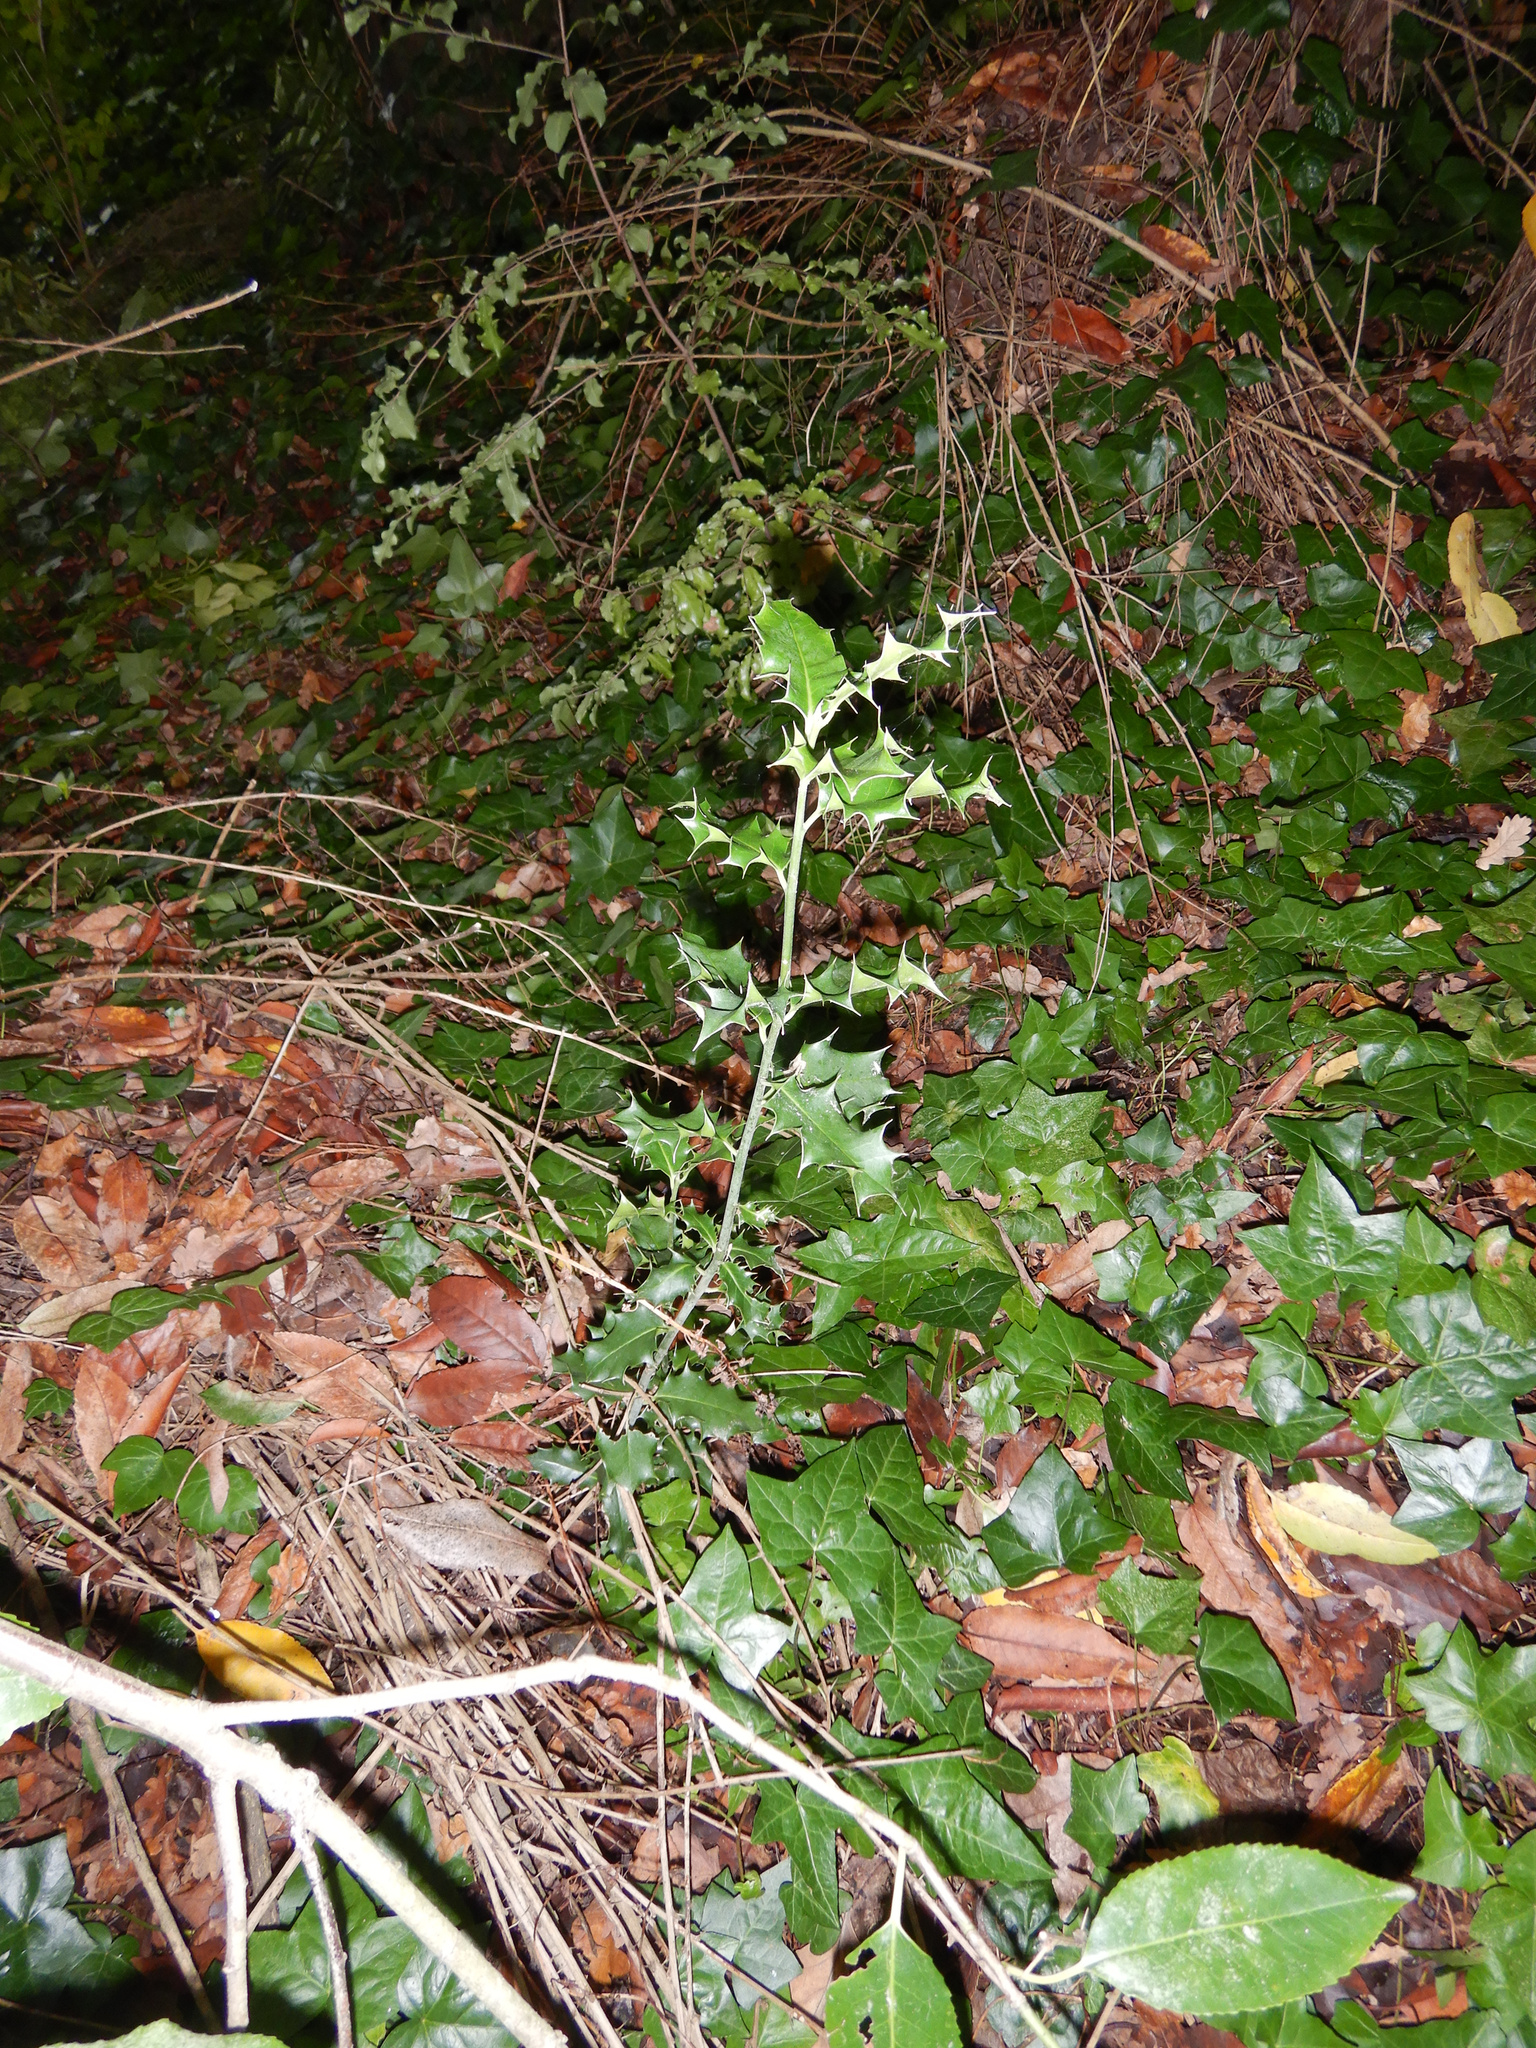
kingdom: Plantae
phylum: Tracheophyta
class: Magnoliopsida
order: Aquifoliales
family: Aquifoliaceae
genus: Ilex
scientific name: Ilex aquifolium
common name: English holly
